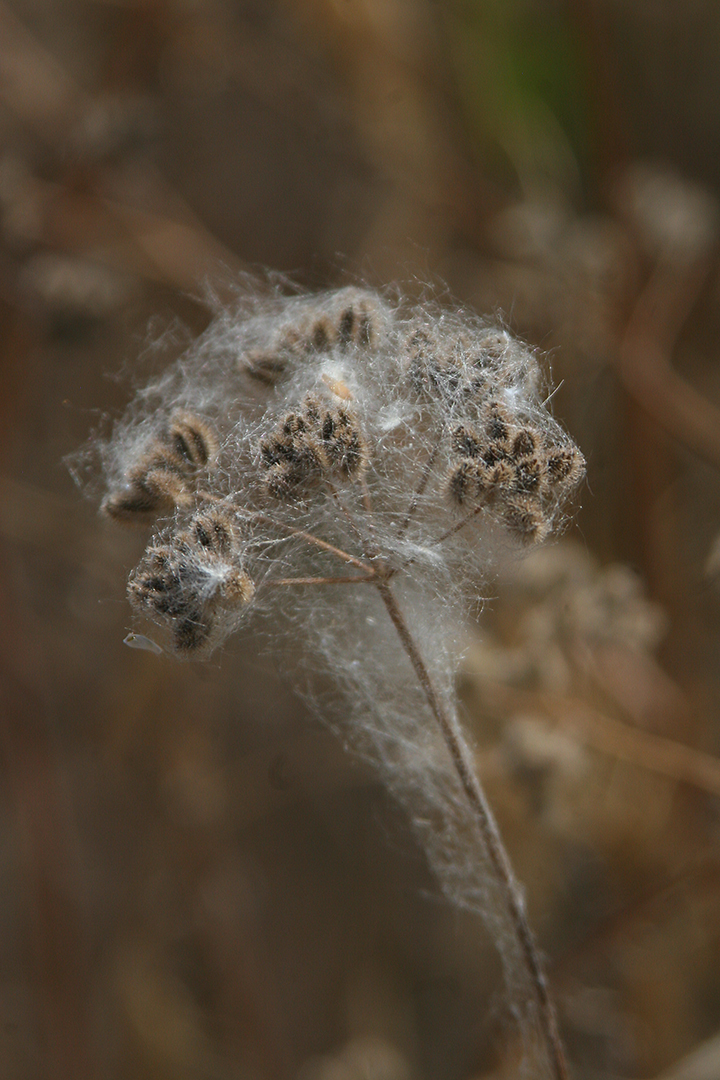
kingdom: Plantae
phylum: Tracheophyta
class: Magnoliopsida
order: Apiales
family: Apiaceae
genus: Torilis
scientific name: Torilis arvensis
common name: Spreading hedge-parsley
